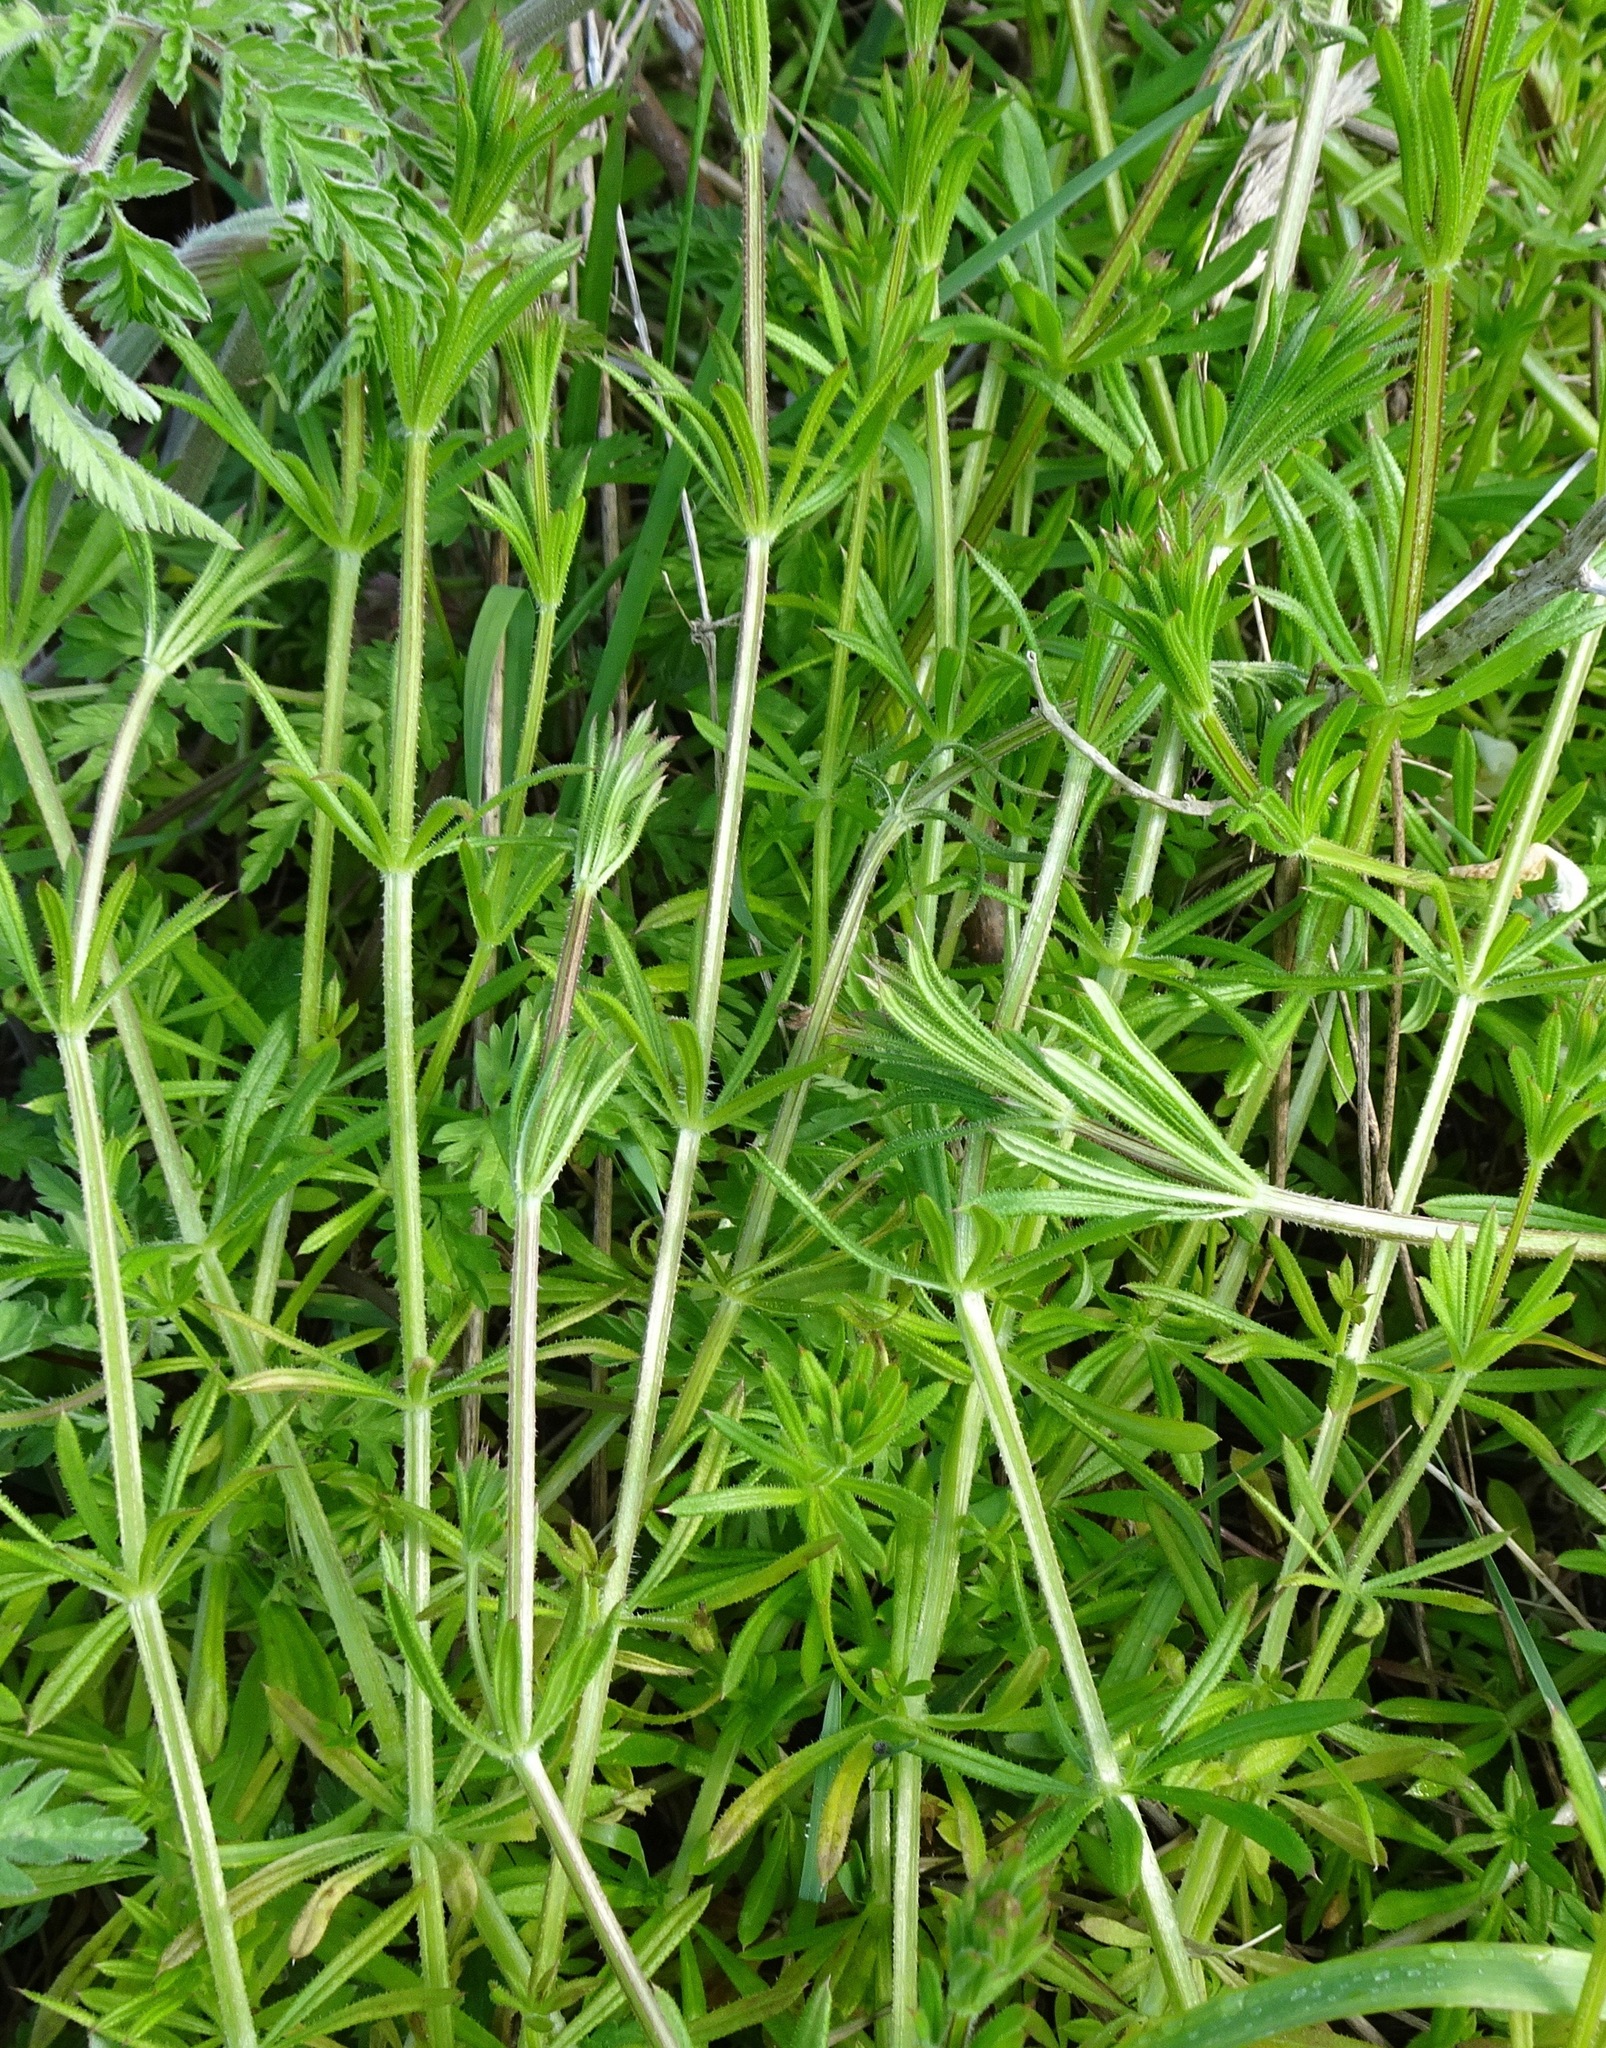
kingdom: Plantae
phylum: Tracheophyta
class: Magnoliopsida
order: Gentianales
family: Rubiaceae
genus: Galium
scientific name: Galium aparine
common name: Cleavers
